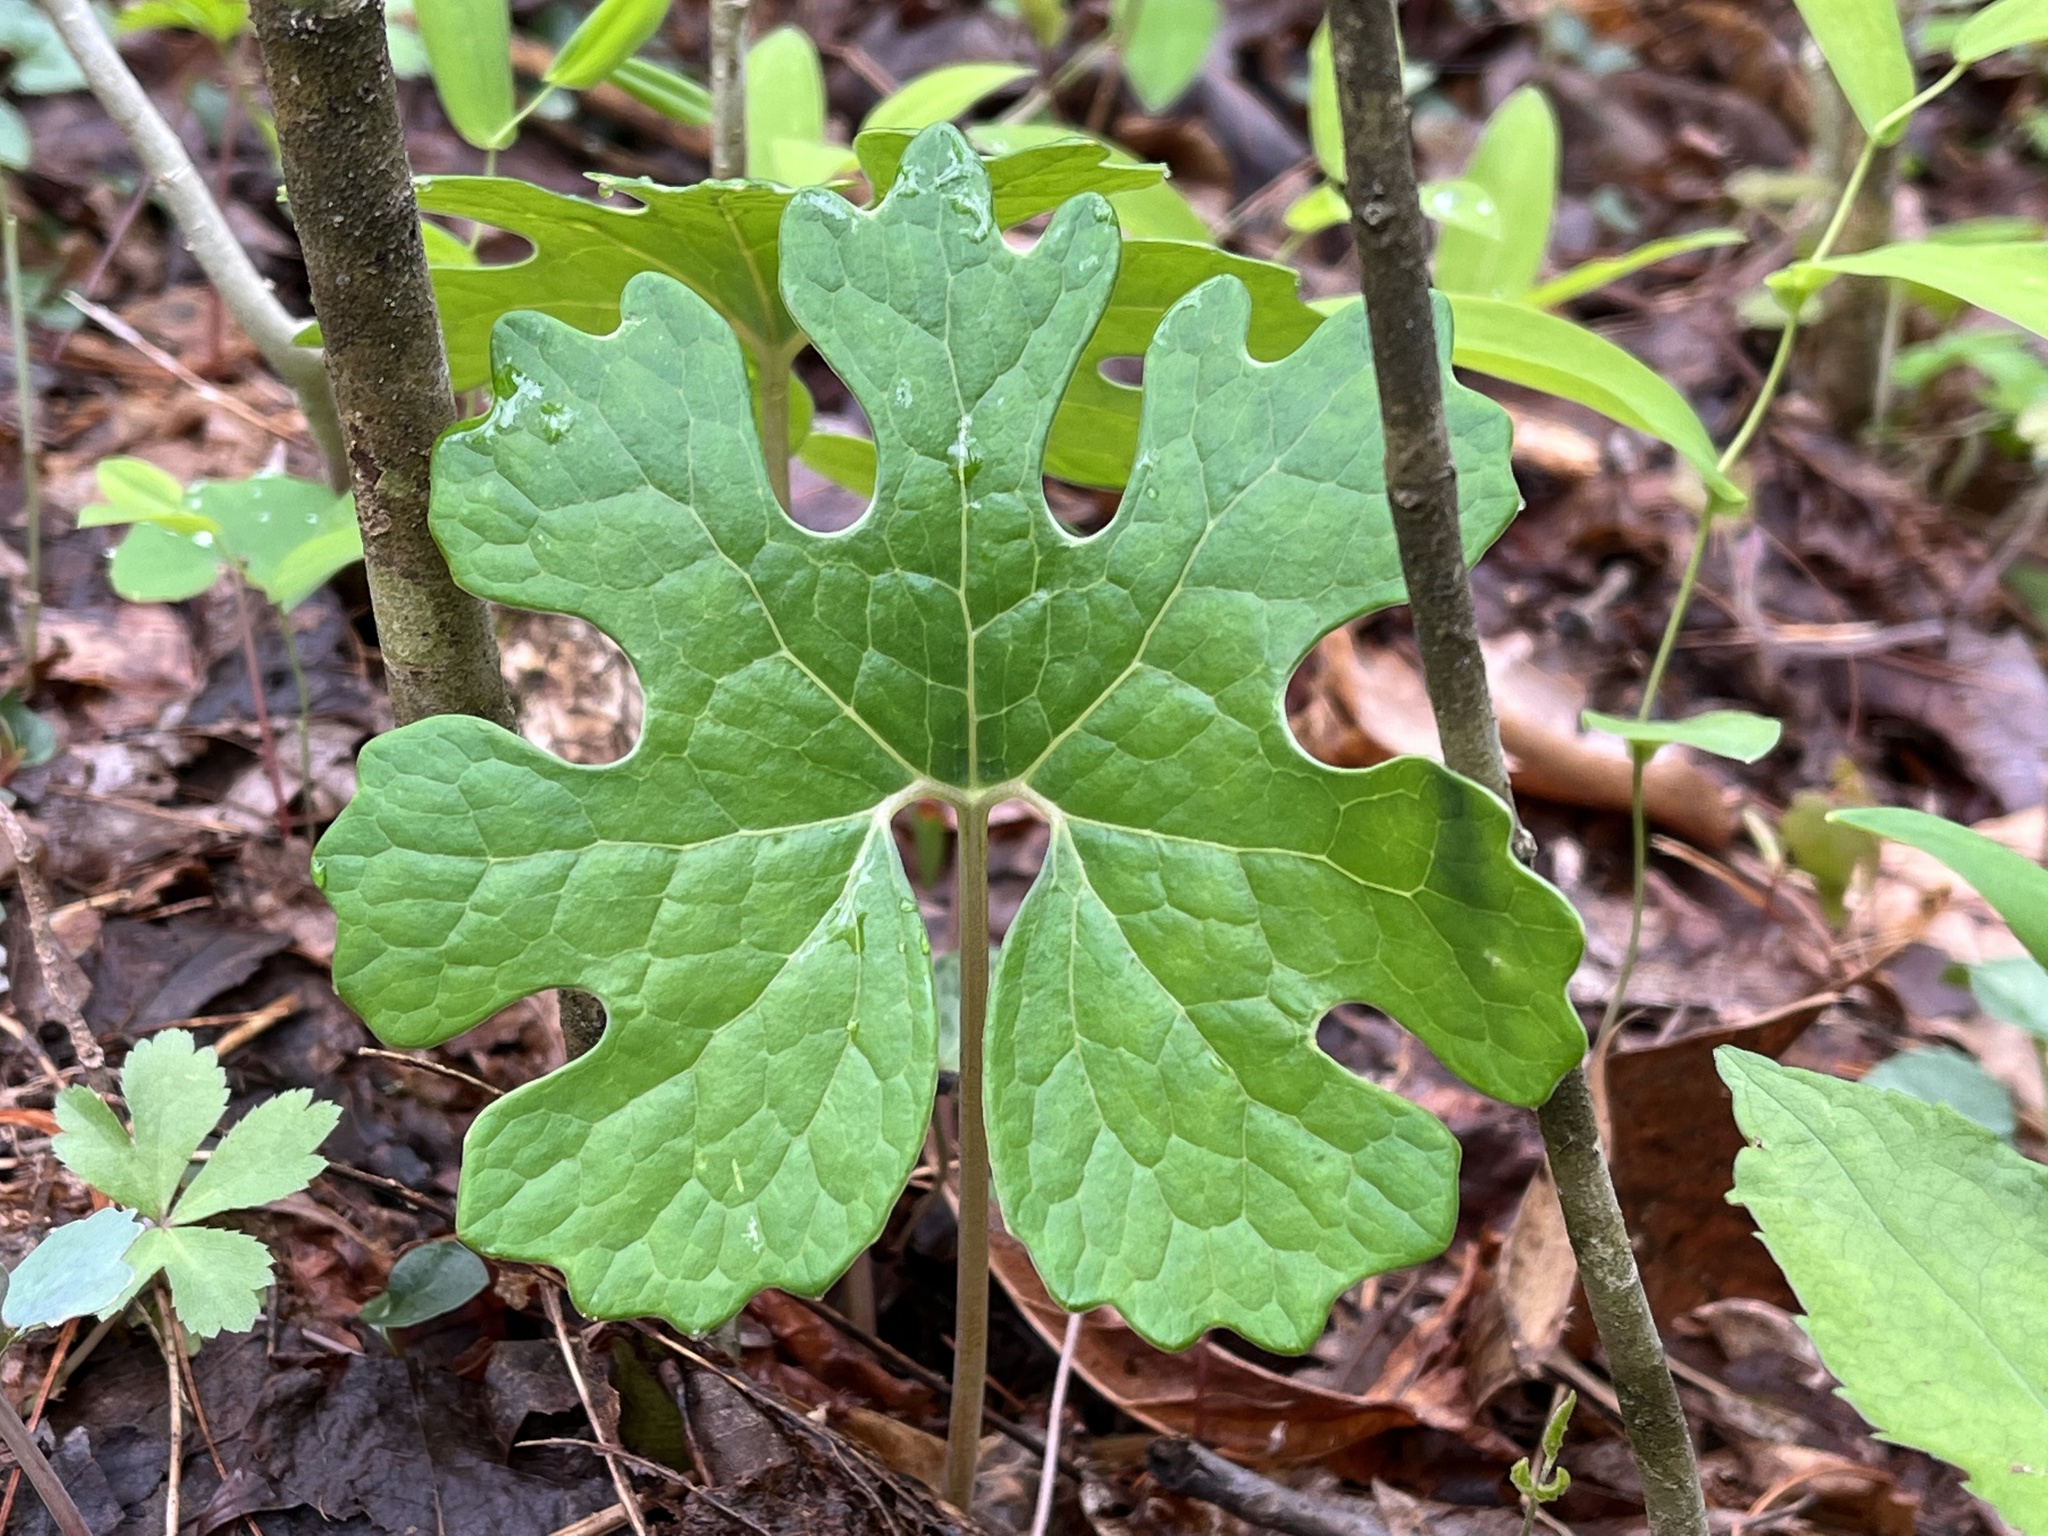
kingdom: Plantae
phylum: Tracheophyta
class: Magnoliopsida
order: Ranunculales
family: Papaveraceae
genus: Sanguinaria
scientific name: Sanguinaria canadensis
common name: Bloodroot
